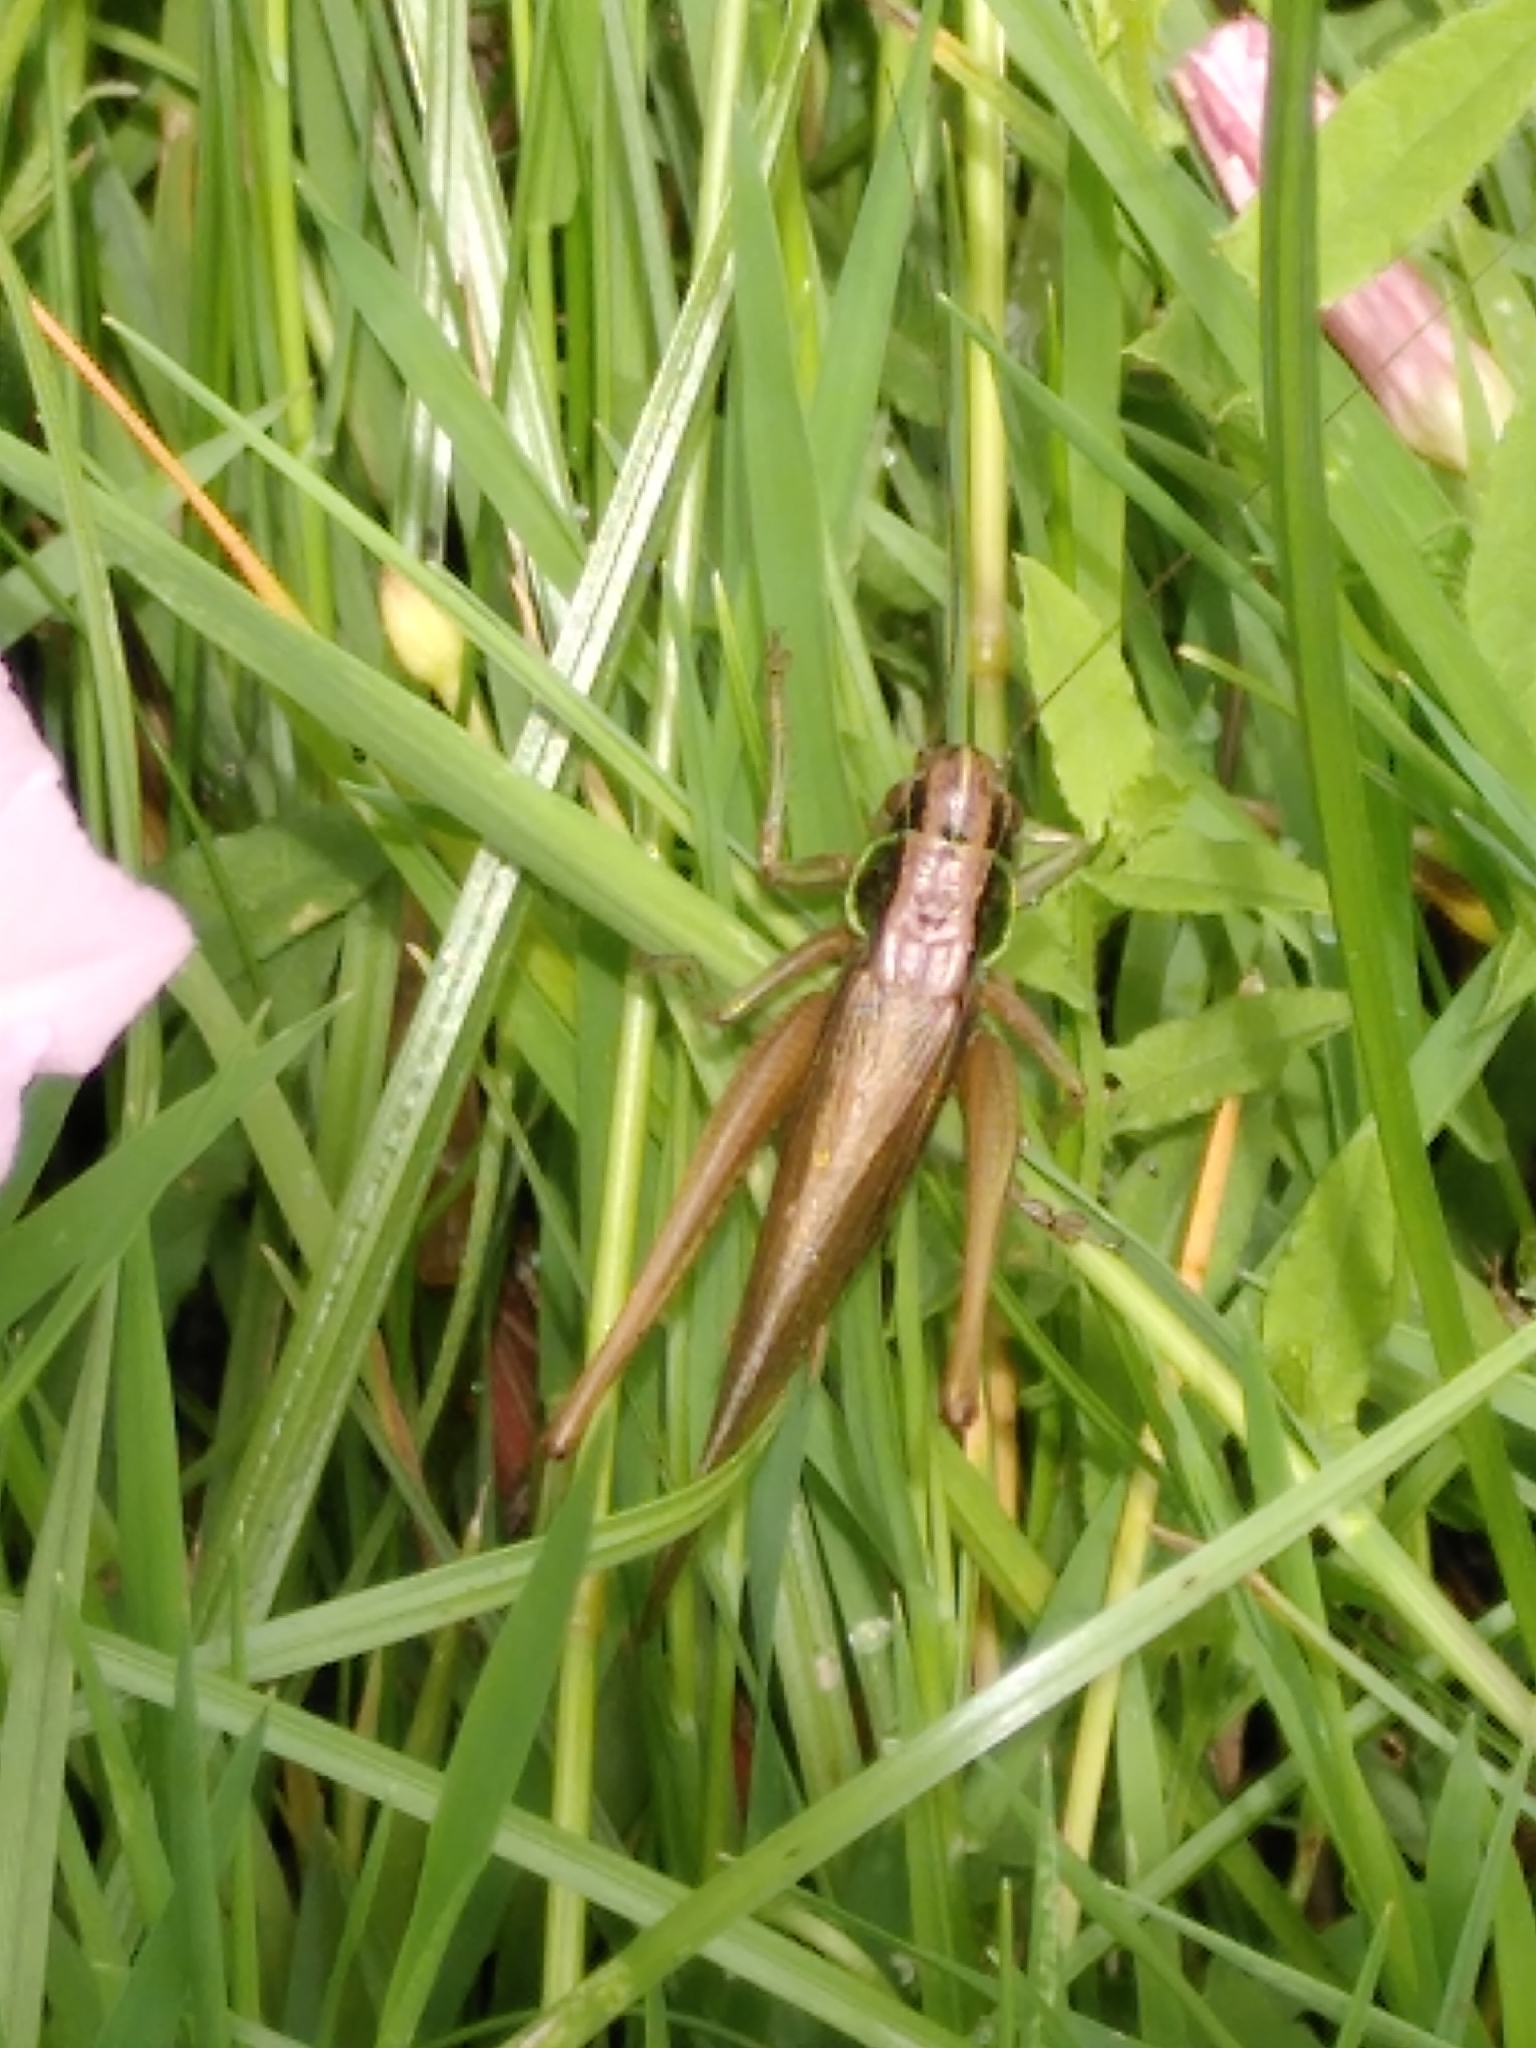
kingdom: Animalia
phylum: Arthropoda
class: Insecta
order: Orthoptera
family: Tettigoniidae
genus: Roeseliana
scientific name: Roeseliana roeselii
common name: Roesel's bush cricket
